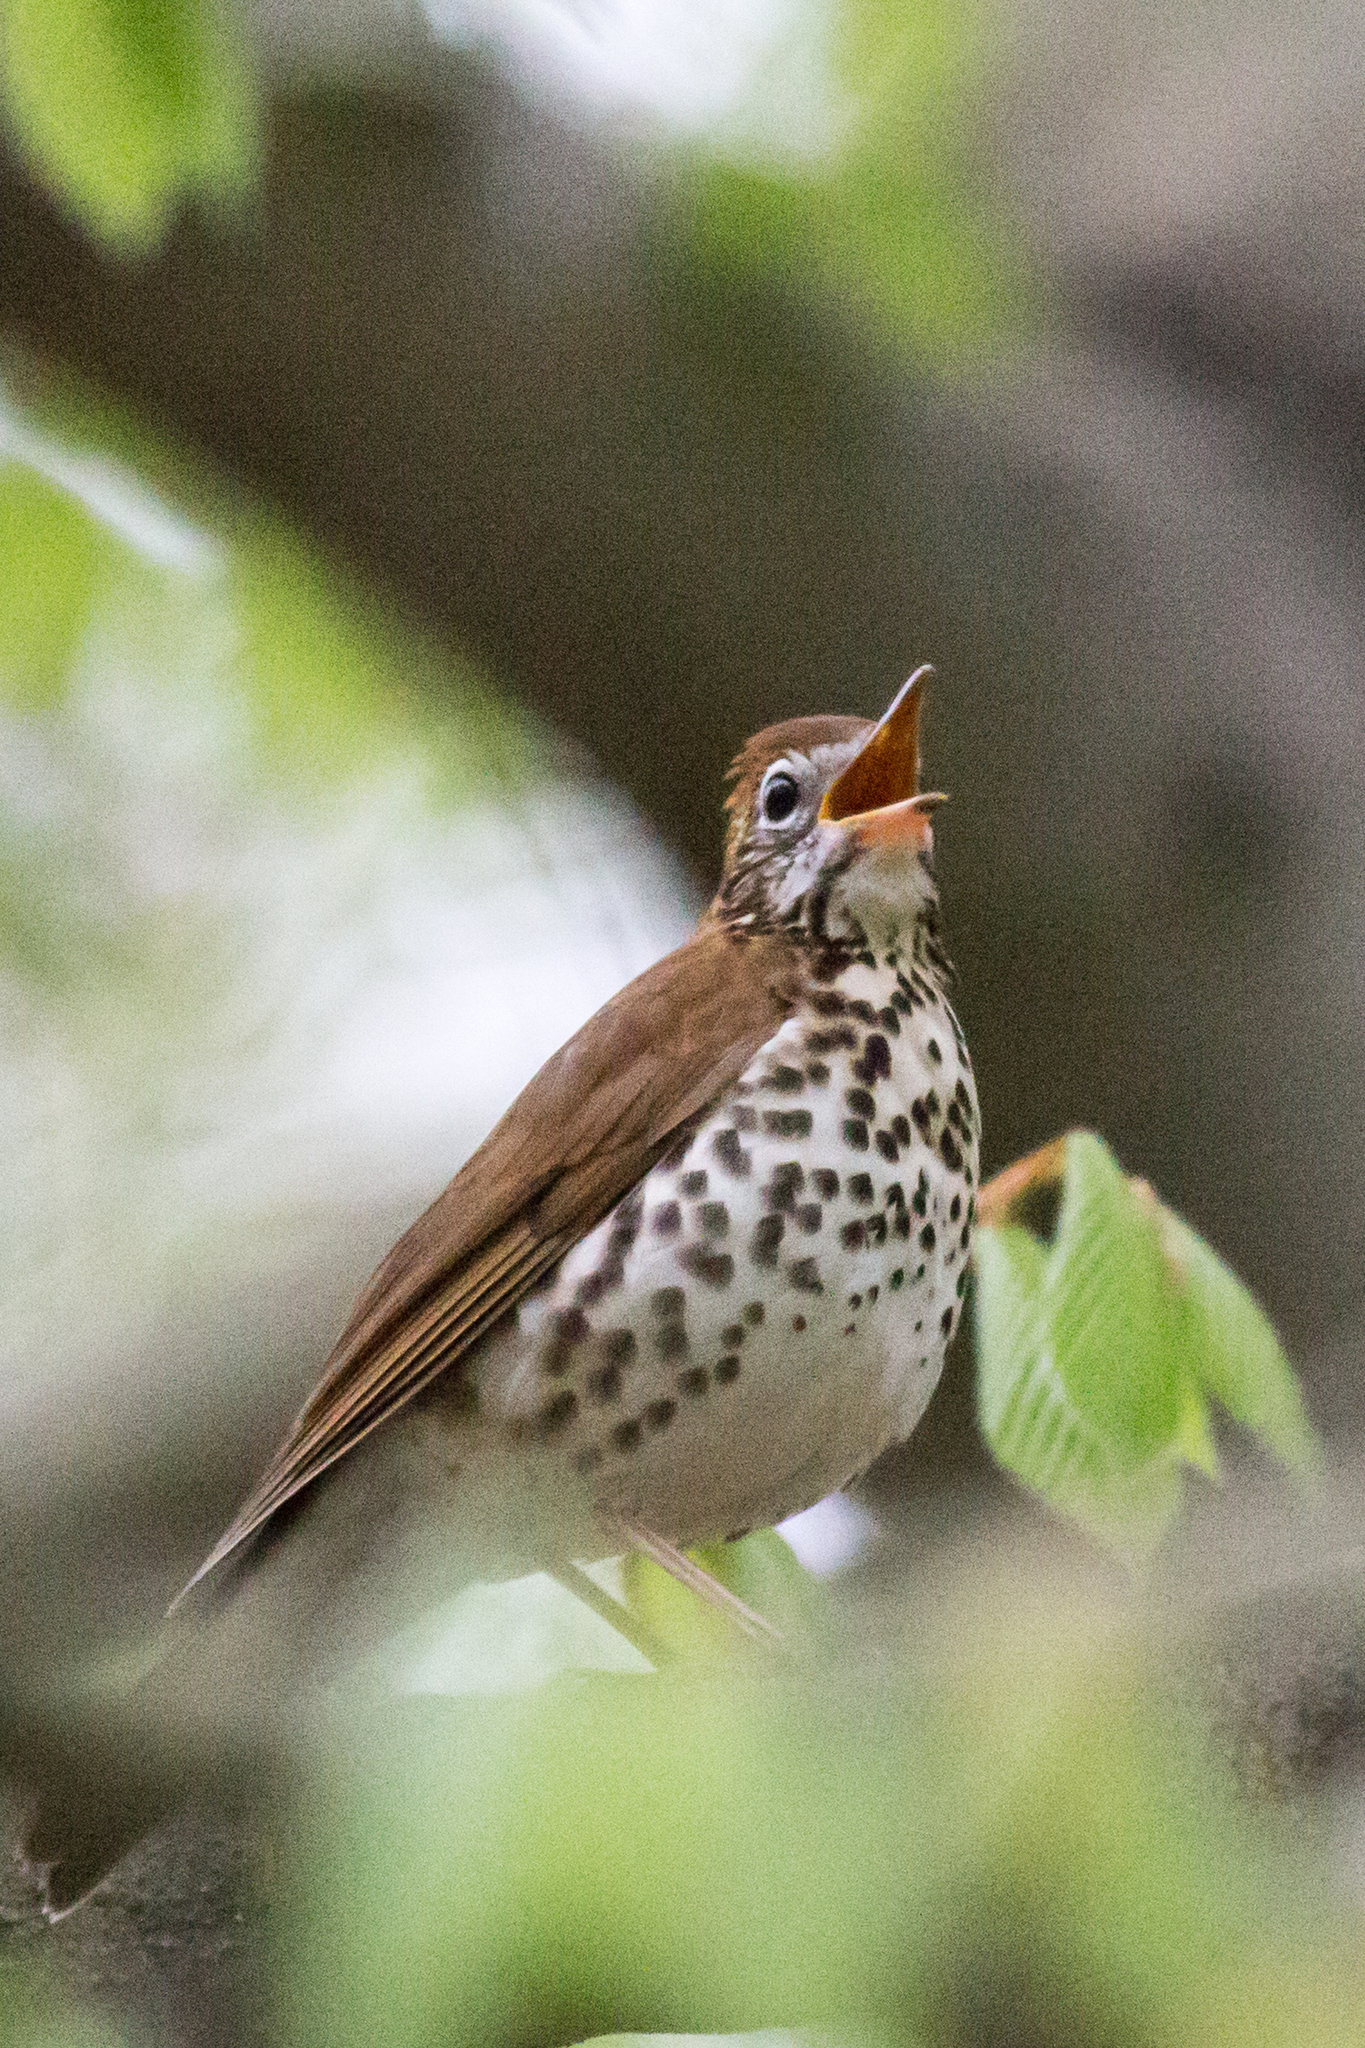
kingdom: Animalia
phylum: Chordata
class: Aves
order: Passeriformes
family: Turdidae
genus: Hylocichla
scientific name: Hylocichla mustelina
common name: Wood thrush
